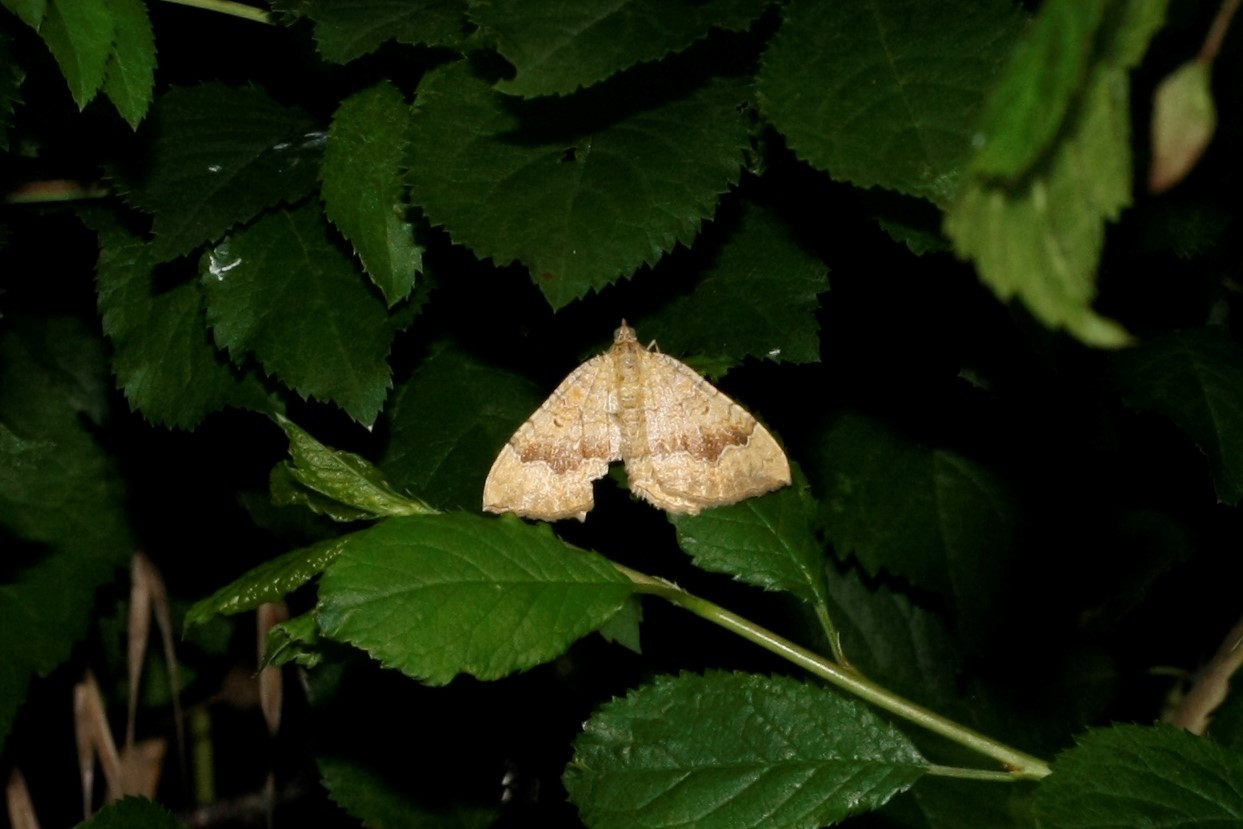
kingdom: Animalia
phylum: Arthropoda
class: Insecta
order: Lepidoptera
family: Geometridae
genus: Camptogramma
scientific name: Camptogramma bilineata
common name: Yellow shell
